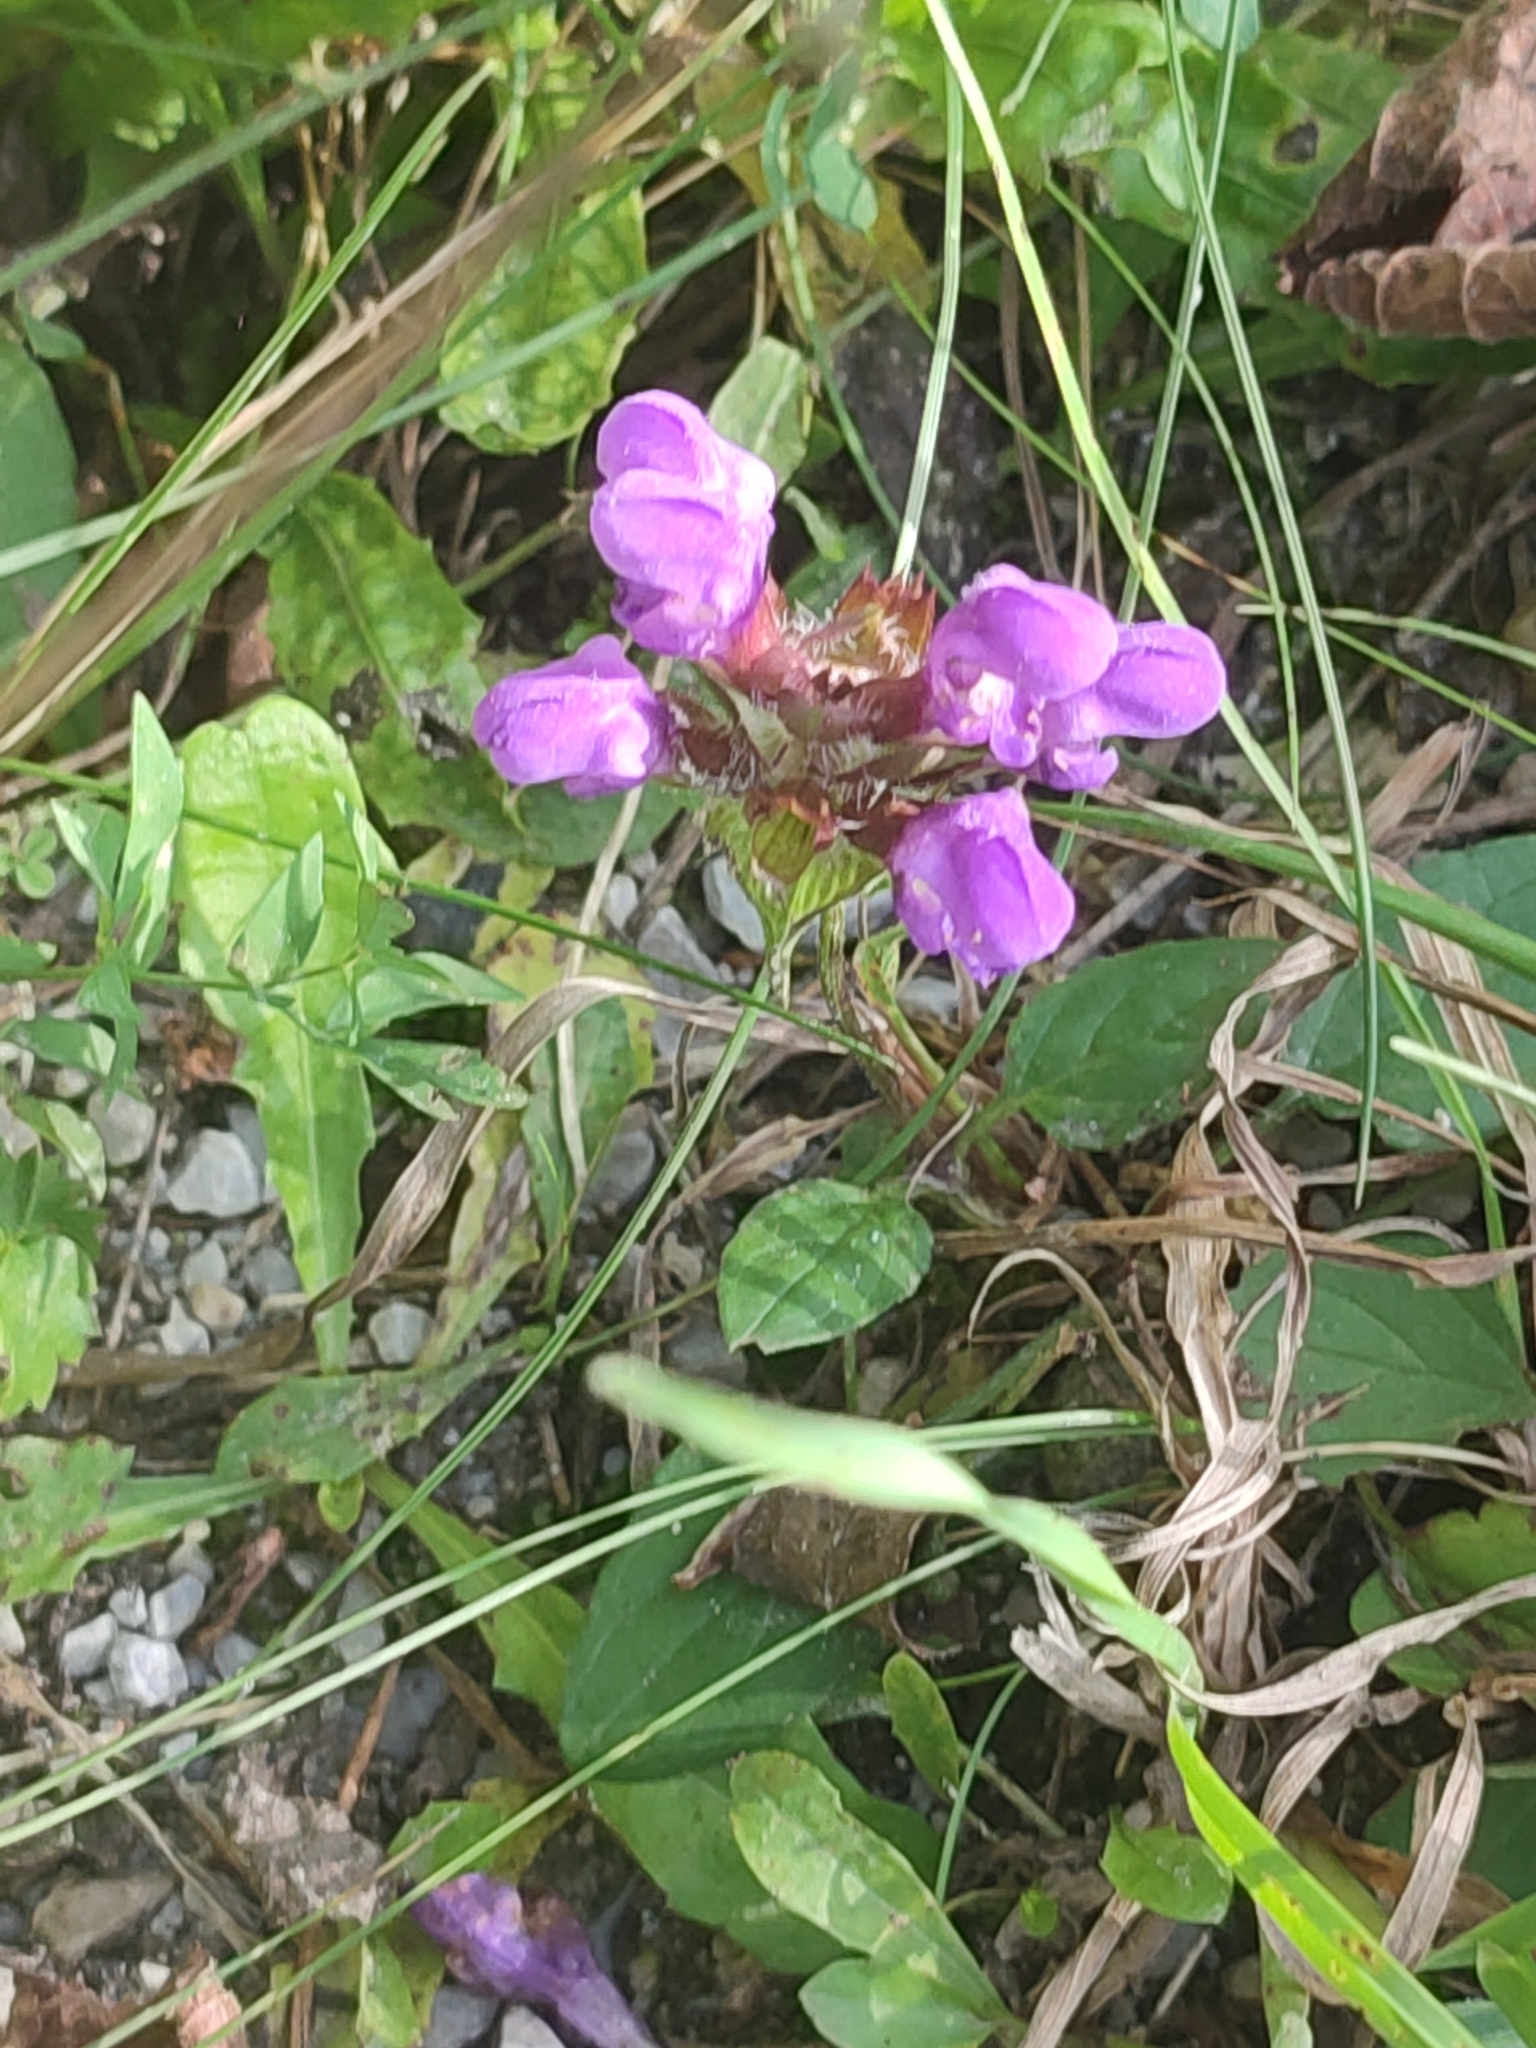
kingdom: Plantae
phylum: Tracheophyta
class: Magnoliopsida
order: Lamiales
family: Lamiaceae
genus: Prunella
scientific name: Prunella grandiflora
